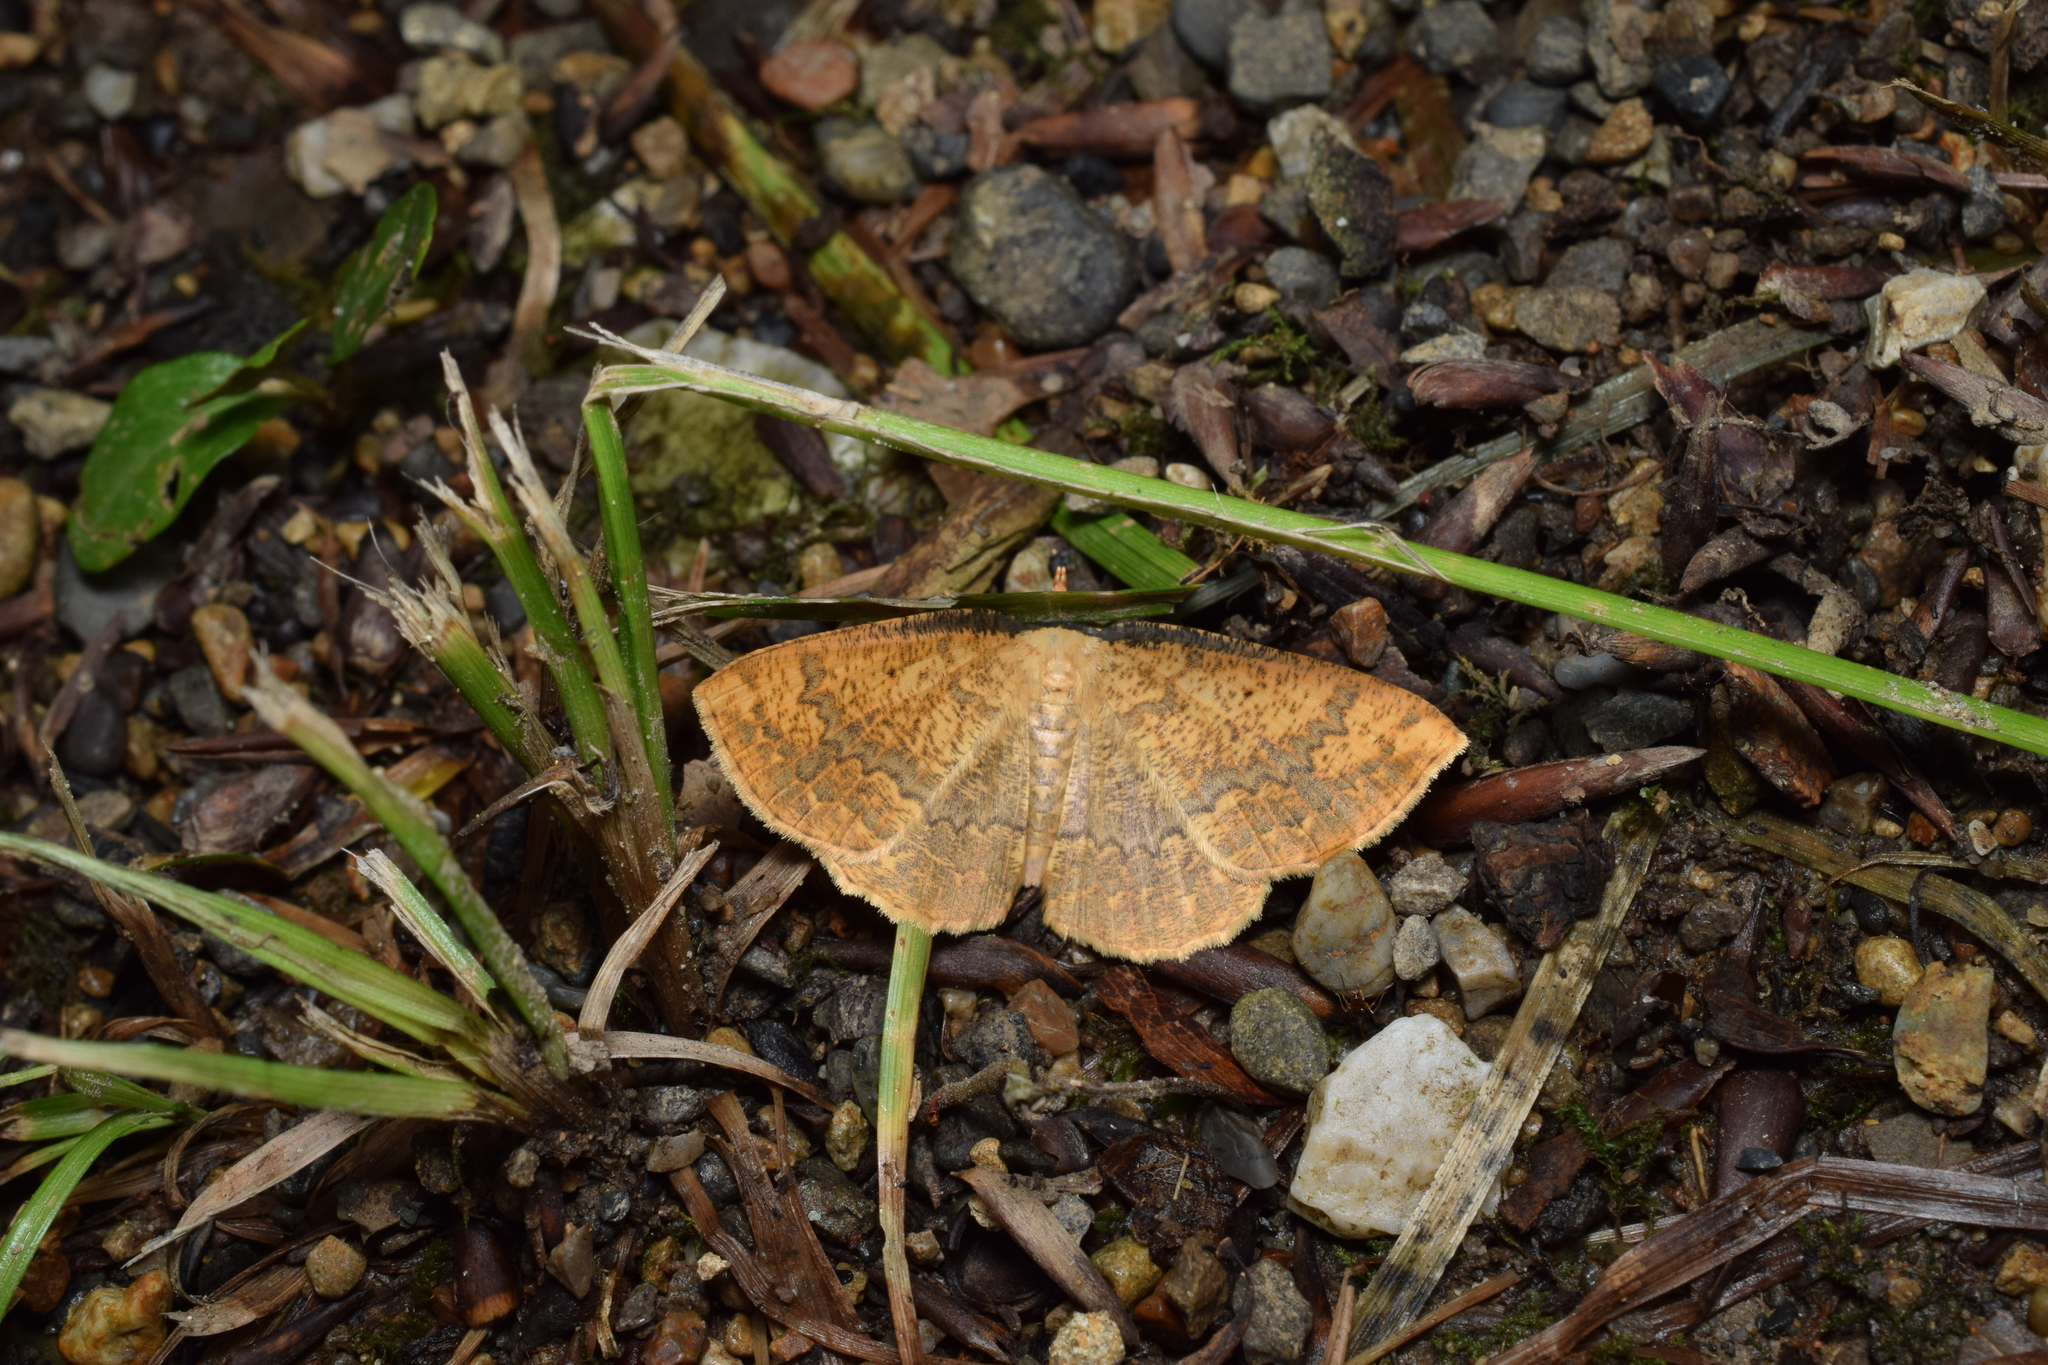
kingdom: Animalia
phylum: Arthropoda
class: Insecta
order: Lepidoptera
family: Geometridae
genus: Synegia
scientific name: Synegia esther
